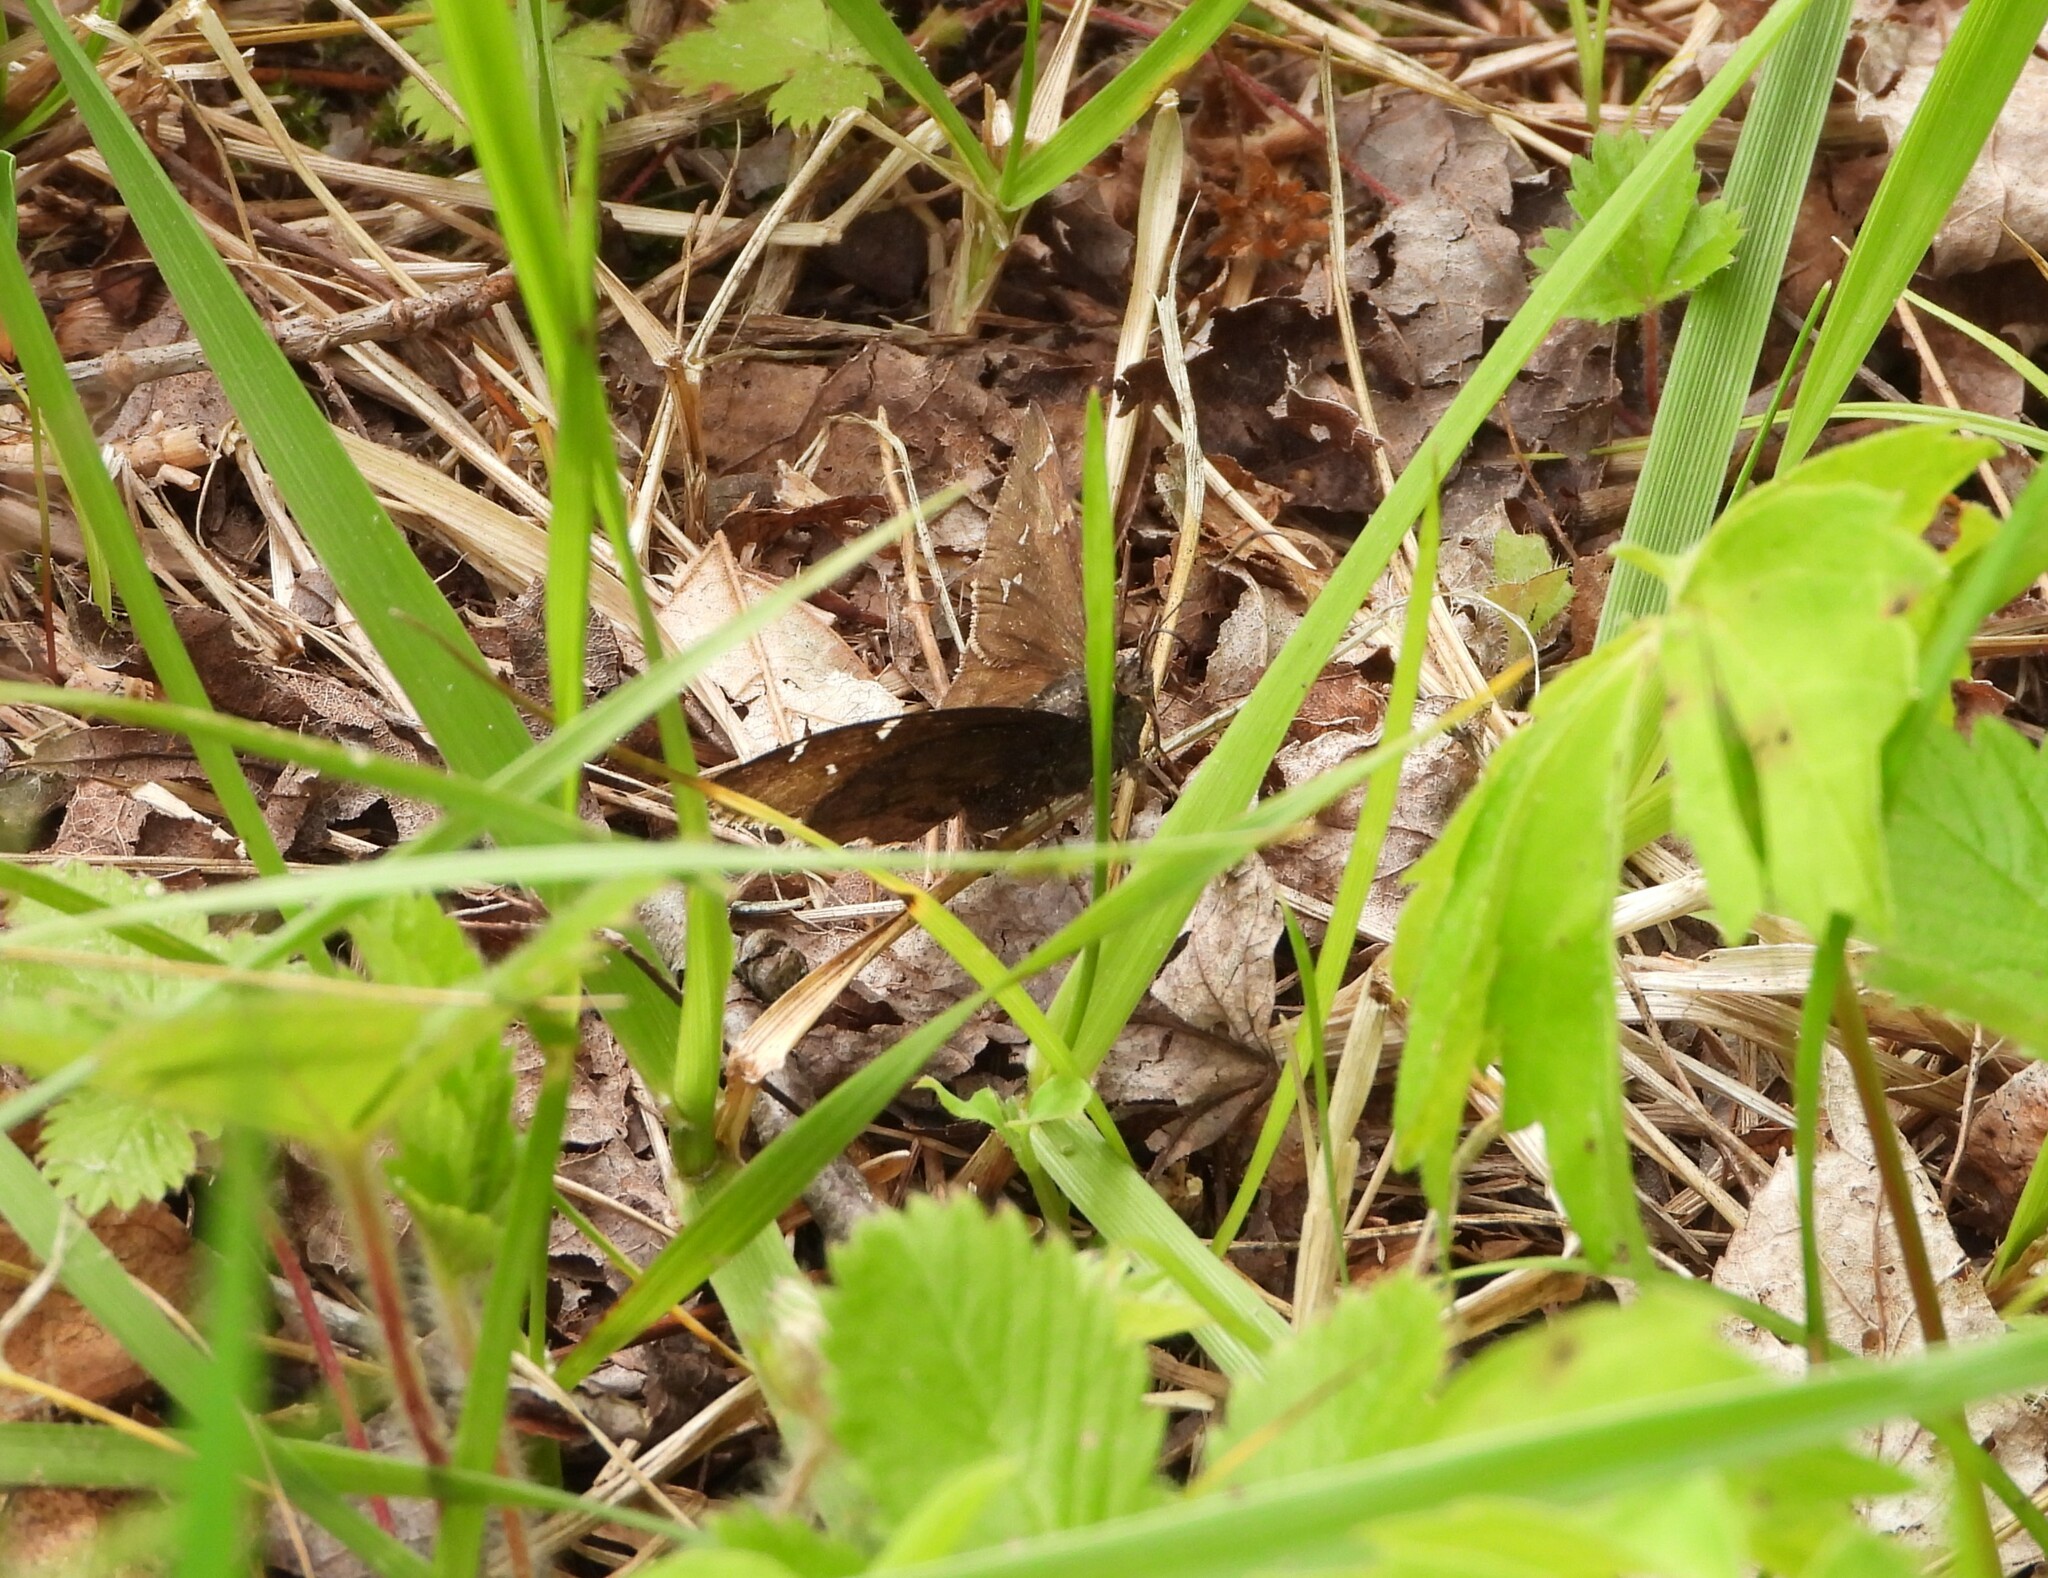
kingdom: Animalia
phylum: Arthropoda
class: Insecta
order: Lepidoptera
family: Hesperiidae
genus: Thorybes
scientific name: Thorybes pylades
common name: Northern cloudywing
